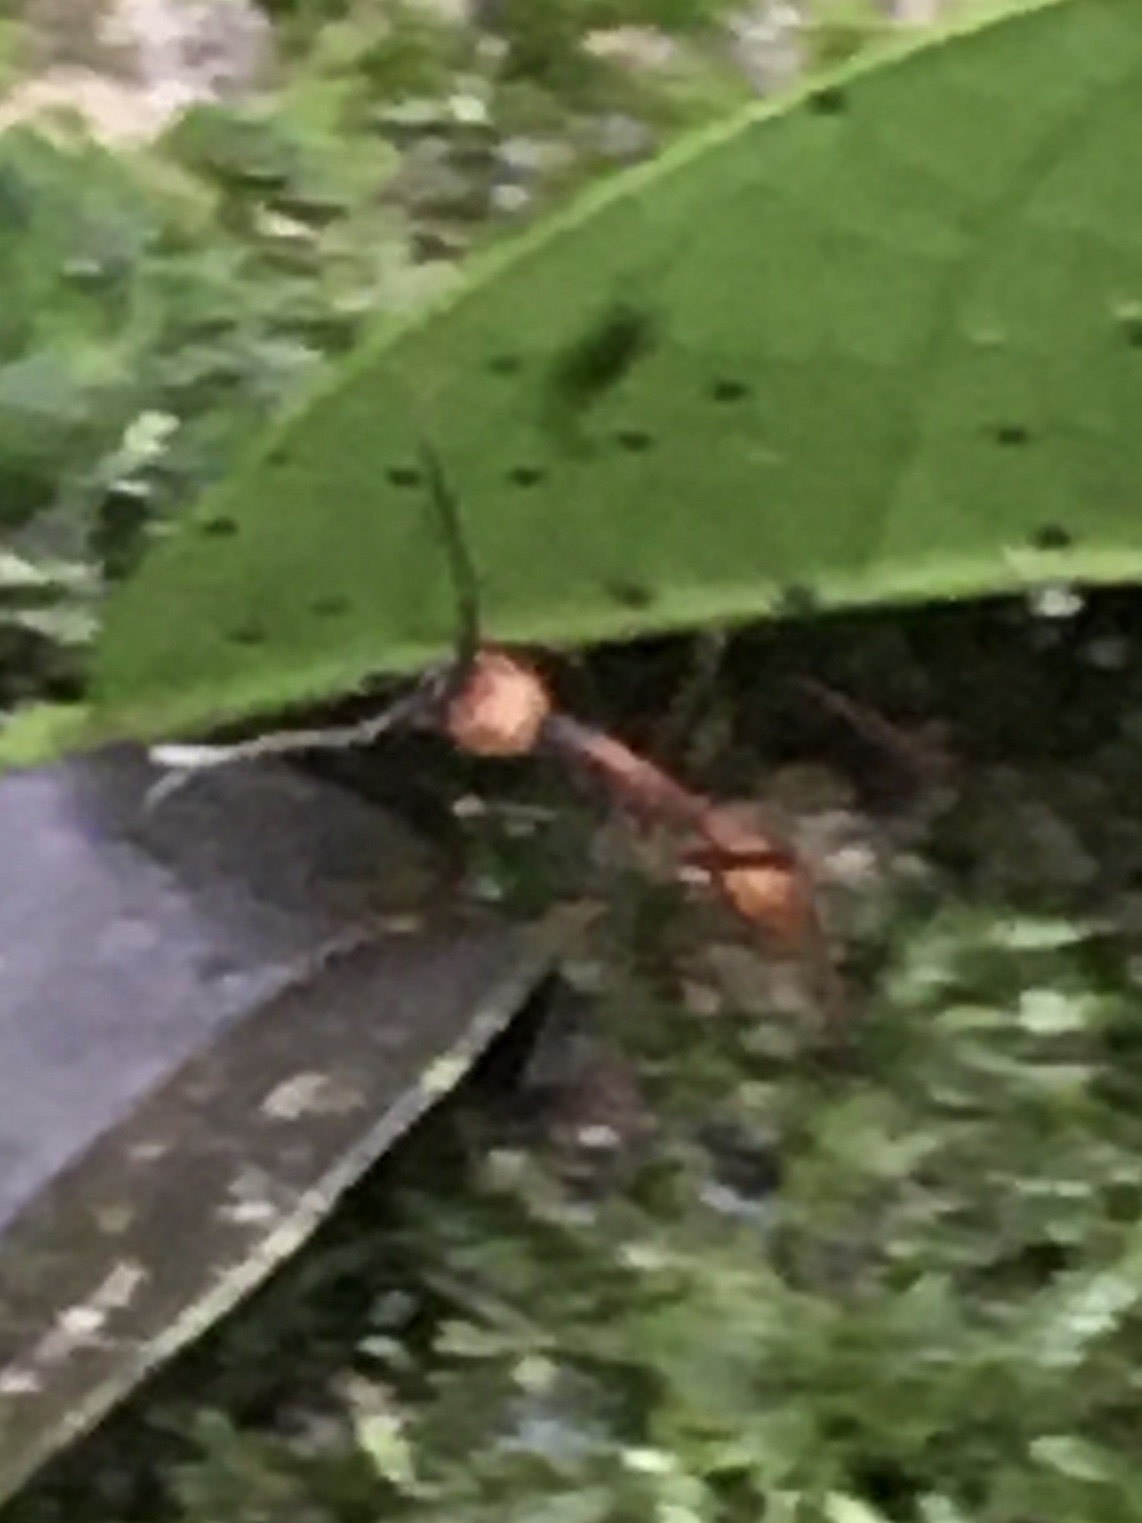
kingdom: Animalia
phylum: Arthropoda
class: Insecta
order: Hymenoptera
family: Formicidae
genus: Eciton
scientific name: Eciton burchellii
